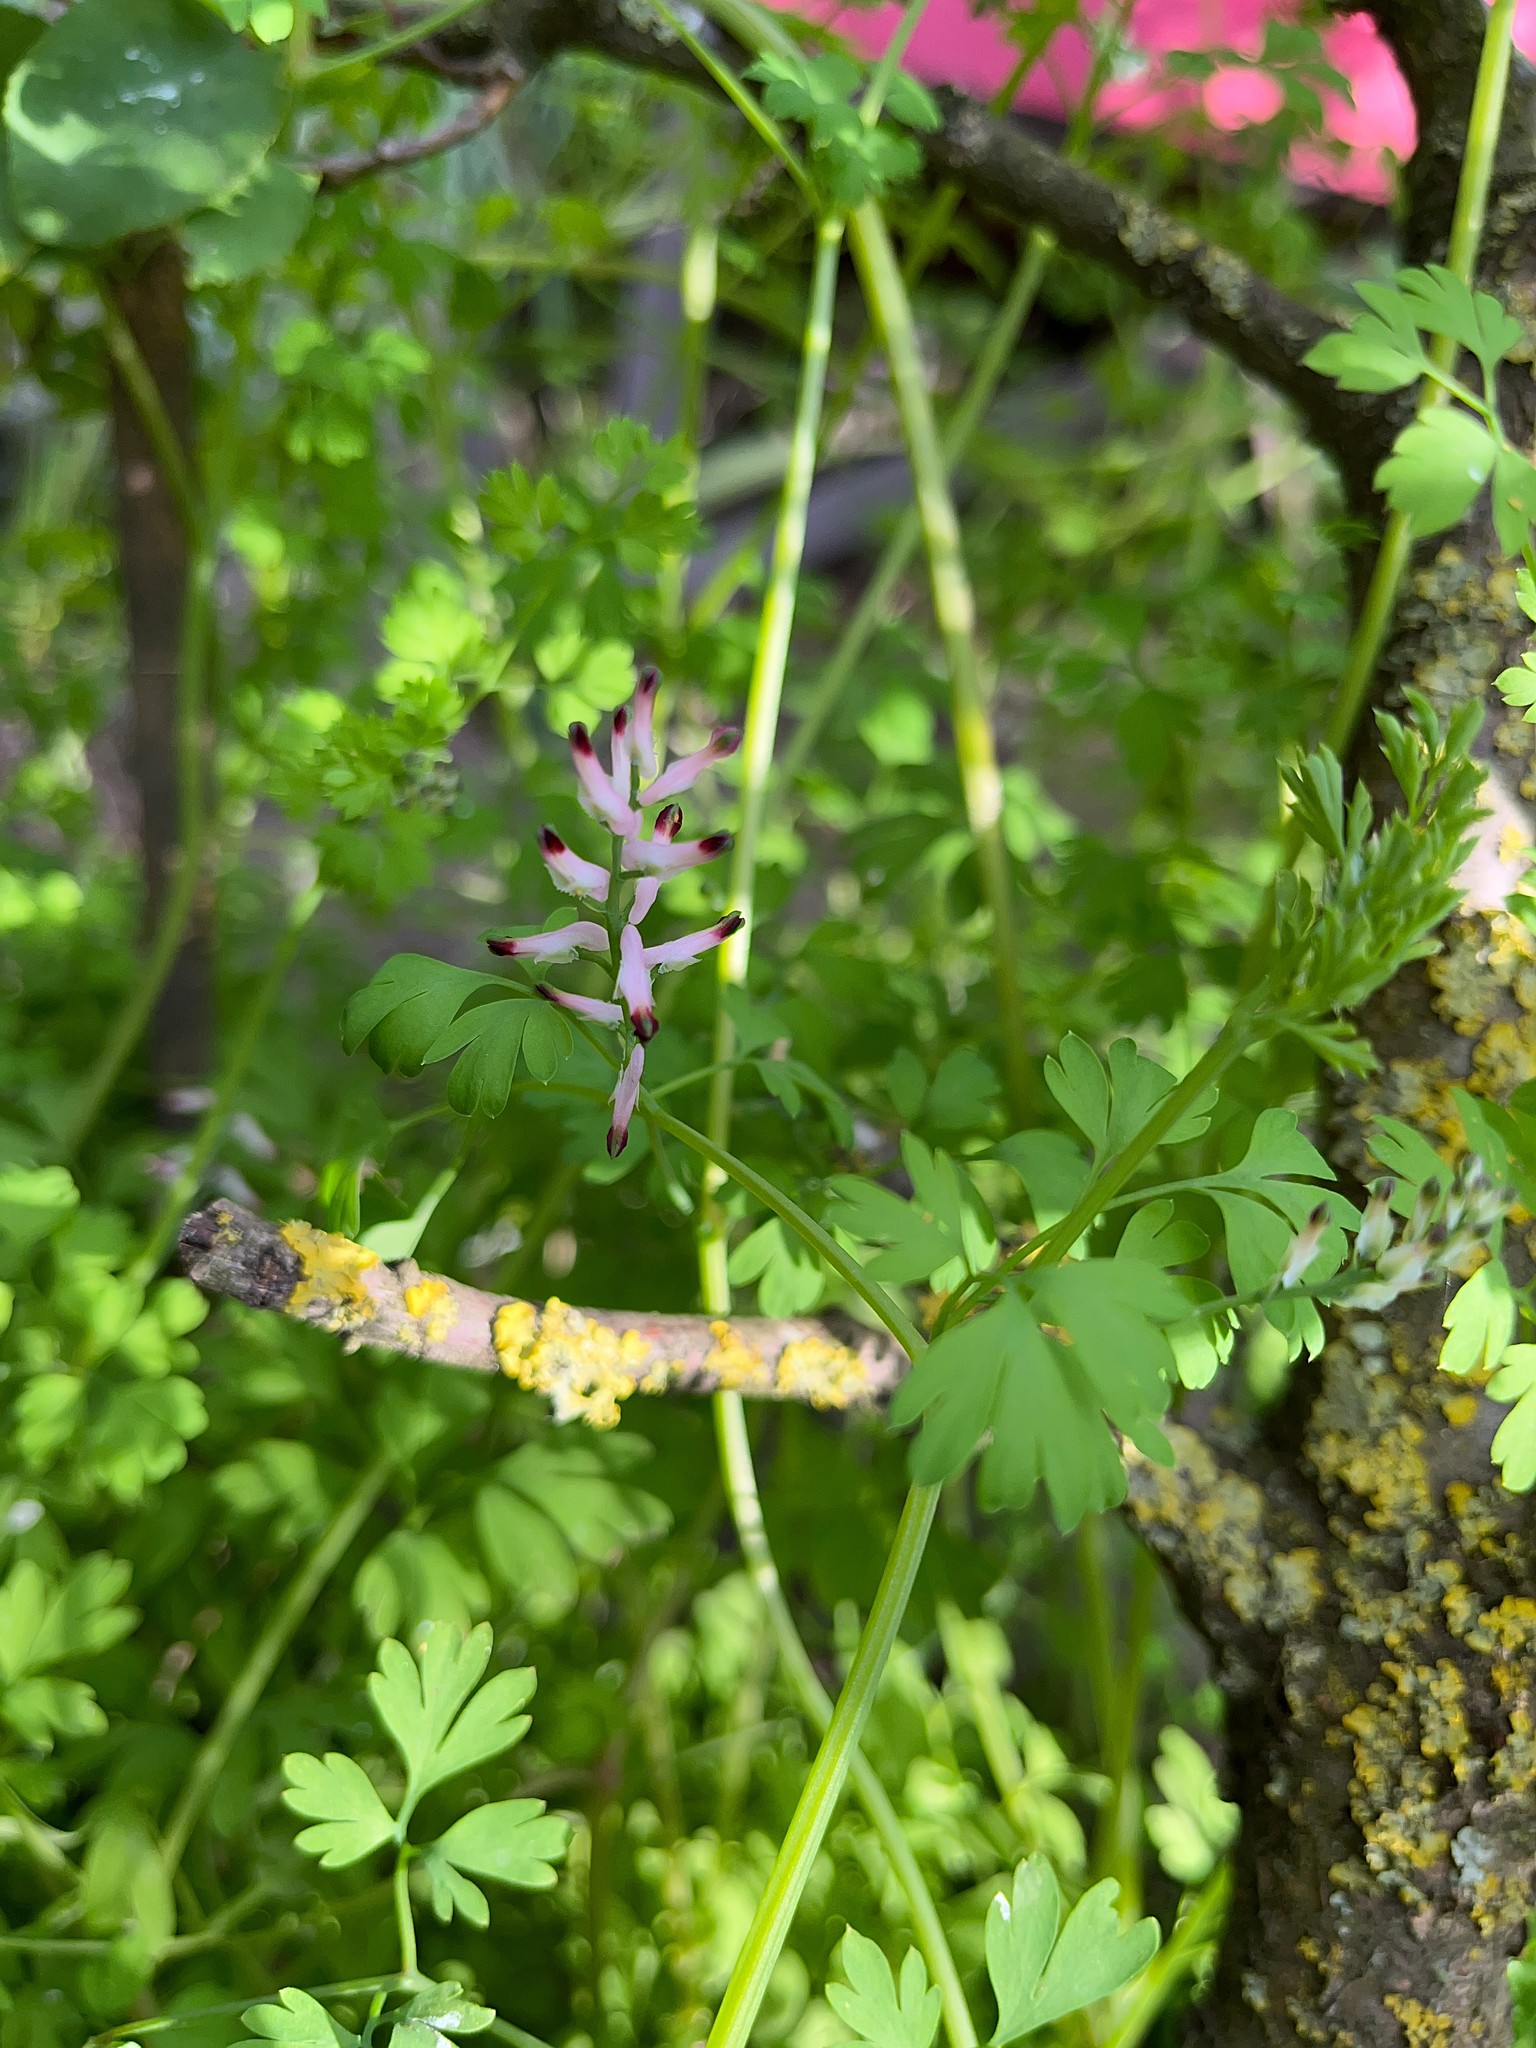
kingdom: Plantae
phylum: Tracheophyta
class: Magnoliopsida
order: Ranunculales
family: Papaveraceae
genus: Fumaria
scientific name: Fumaria muralis
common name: Common ramping-fumitory
